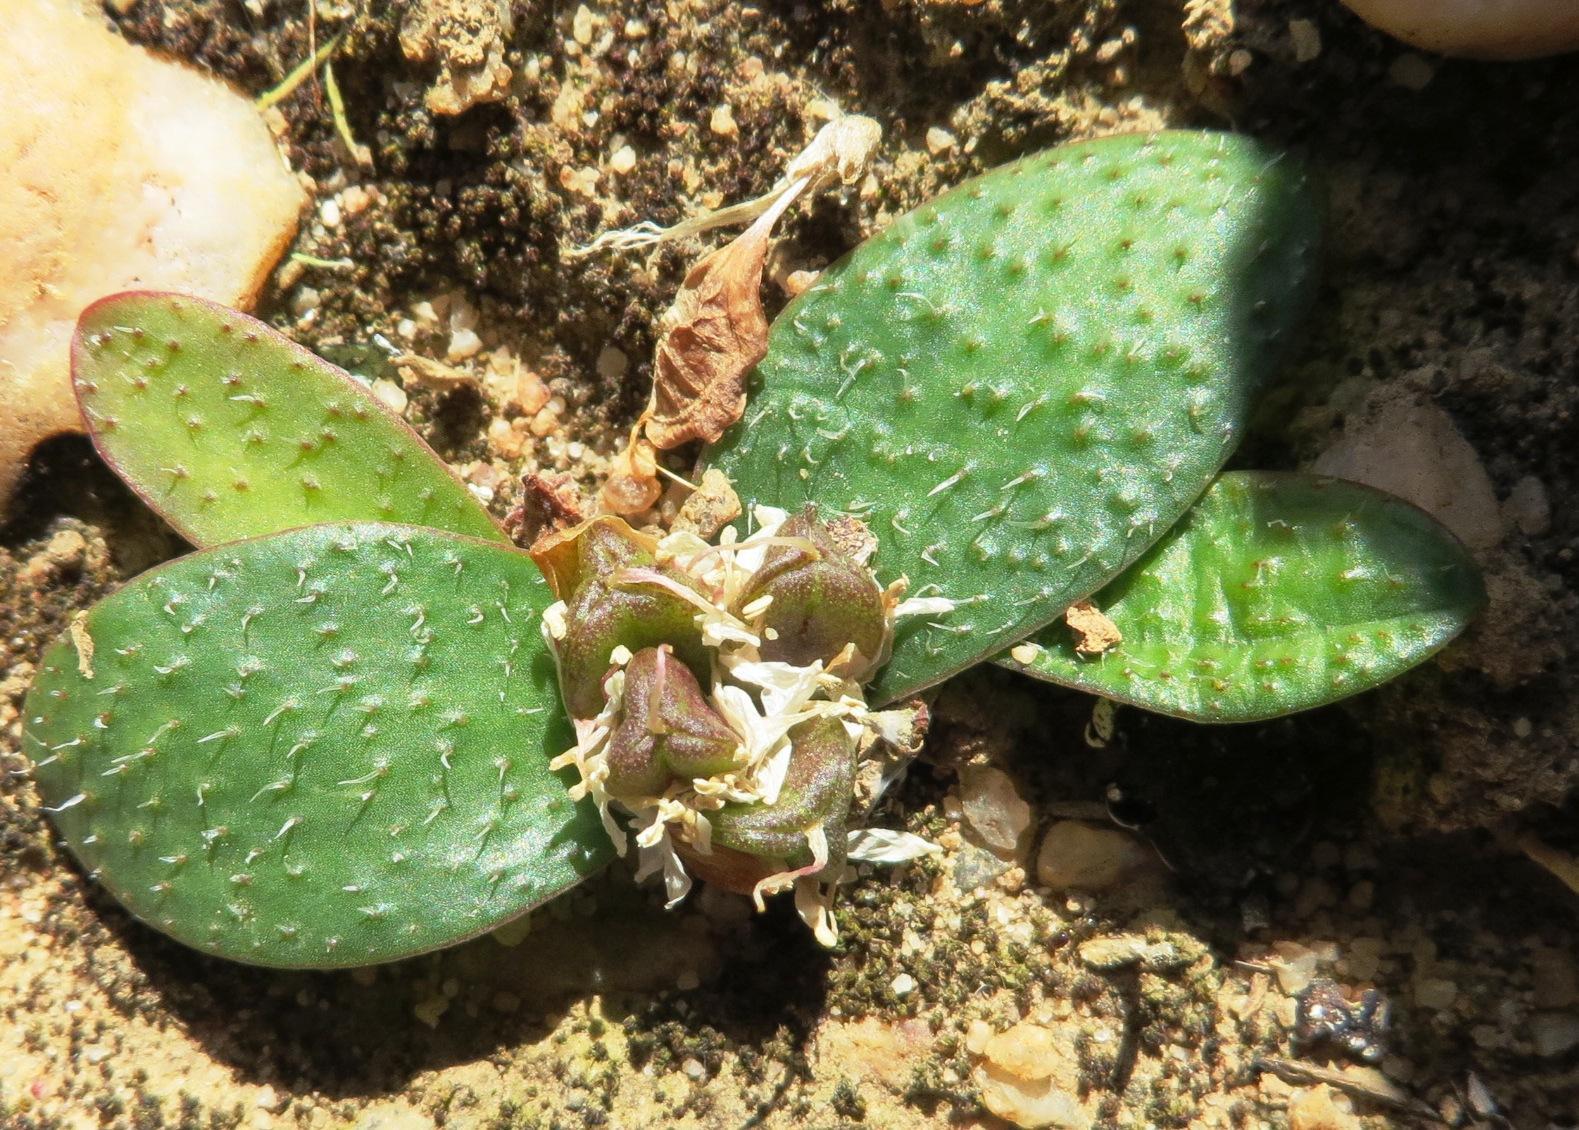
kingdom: Plantae
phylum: Tracheophyta
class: Liliopsida
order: Asparagales
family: Asparagaceae
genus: Massonia
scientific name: Massonia tenella
